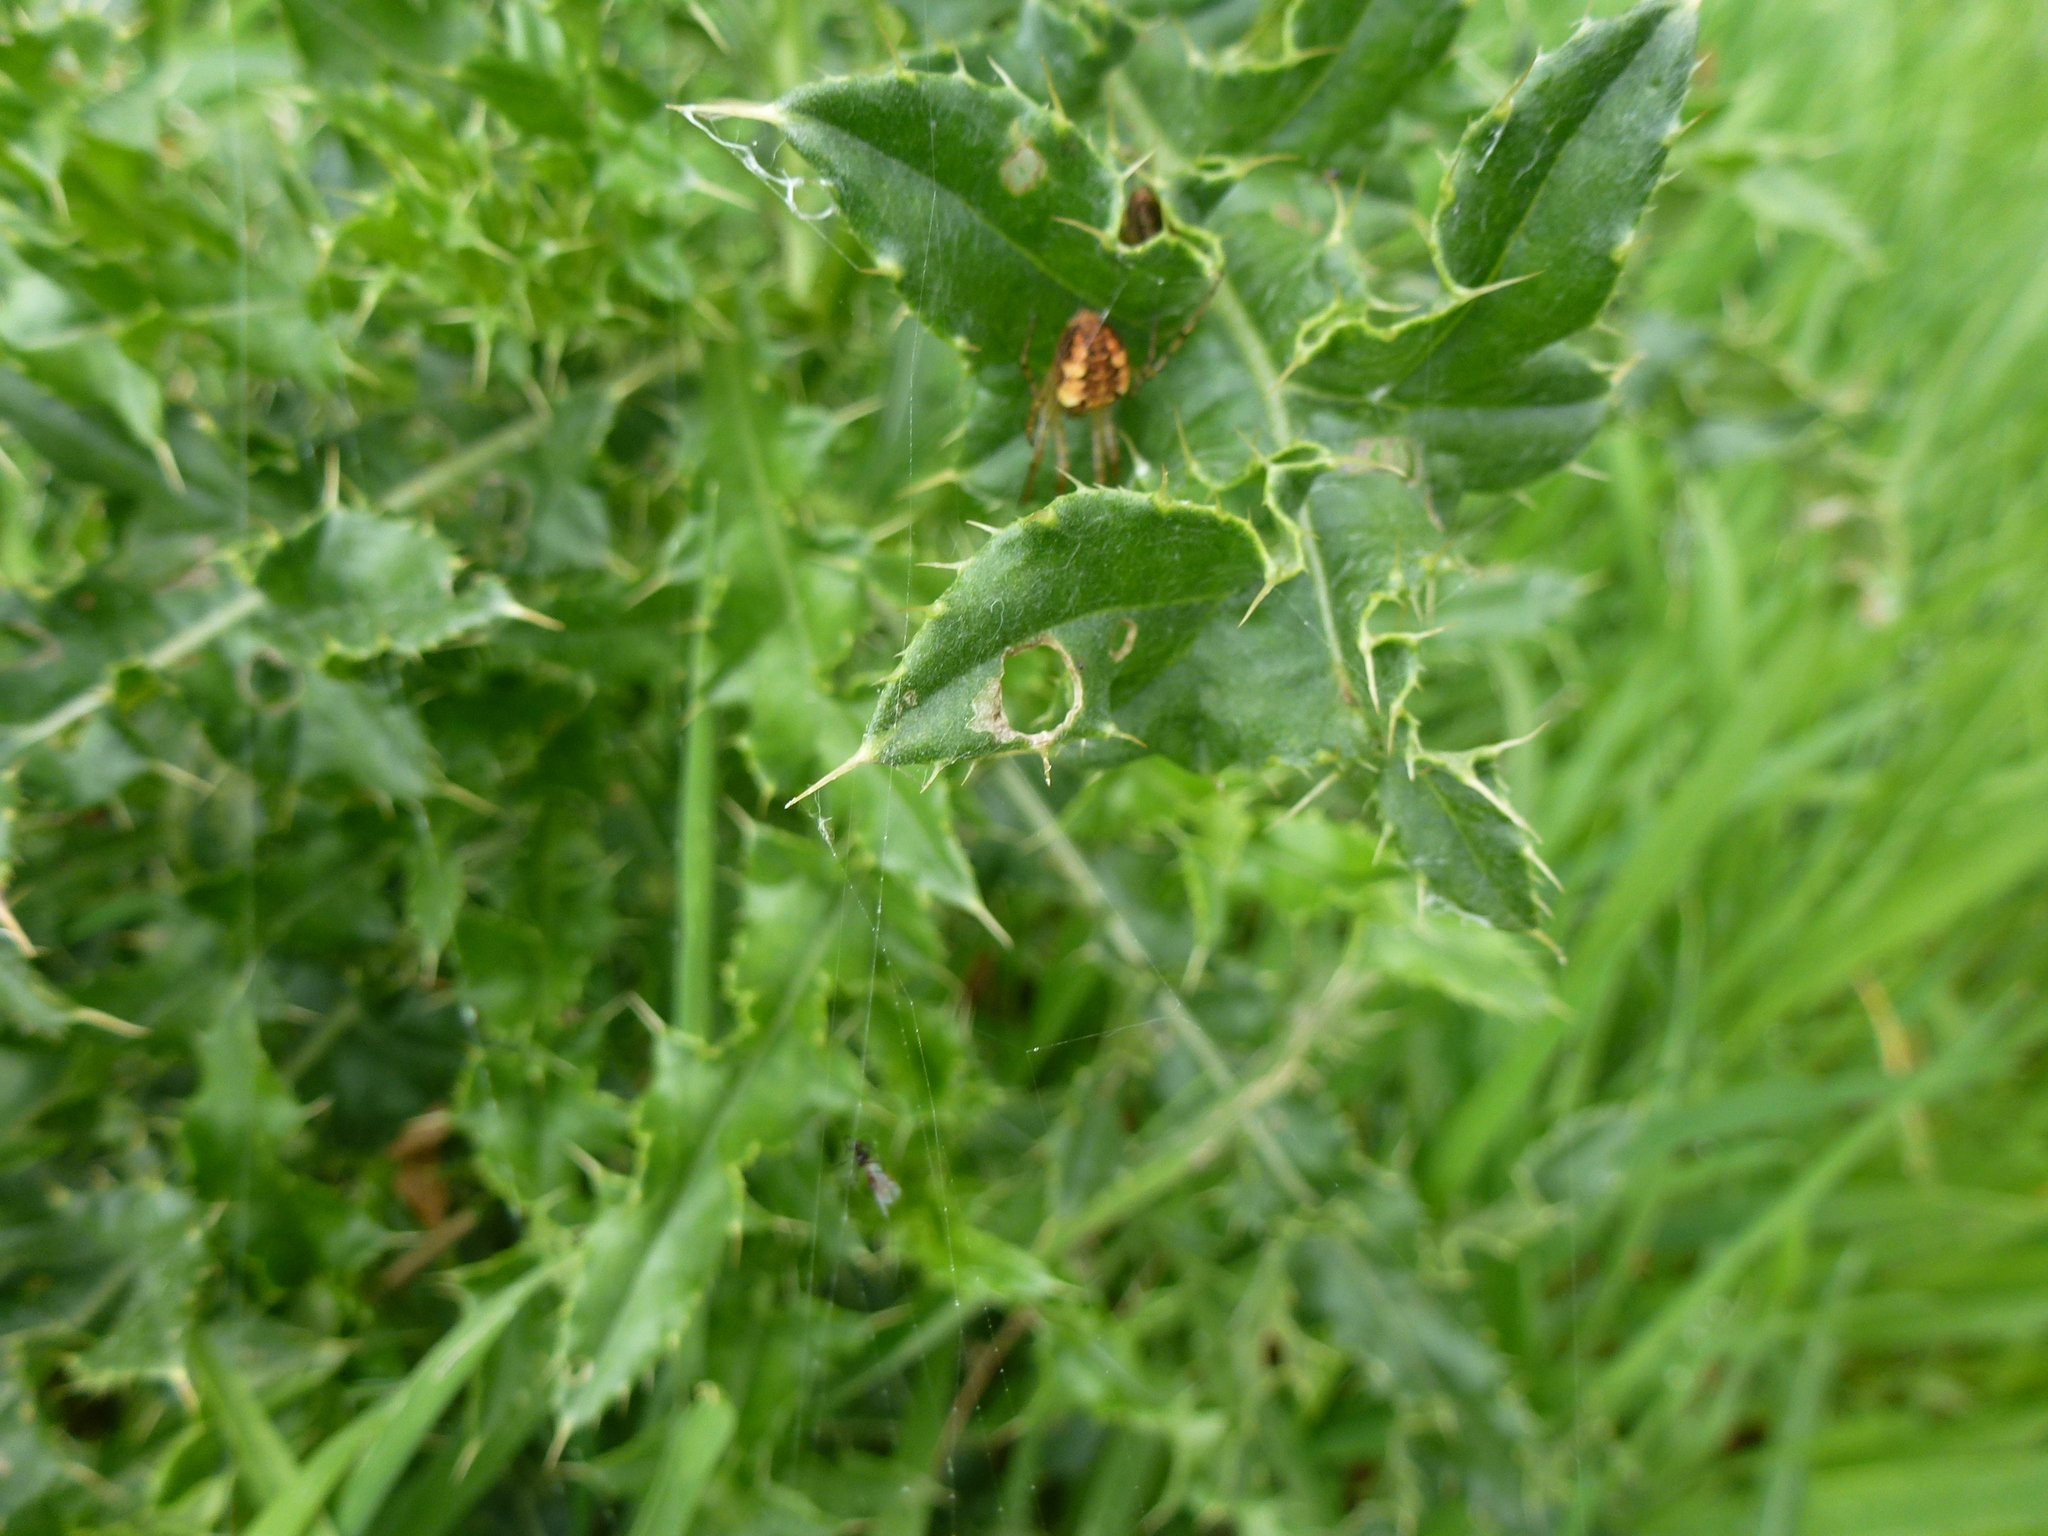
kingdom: Animalia
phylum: Arthropoda
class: Arachnida
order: Araneae
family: Tetragnathidae
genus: Metellina
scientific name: Metellina segmentata
